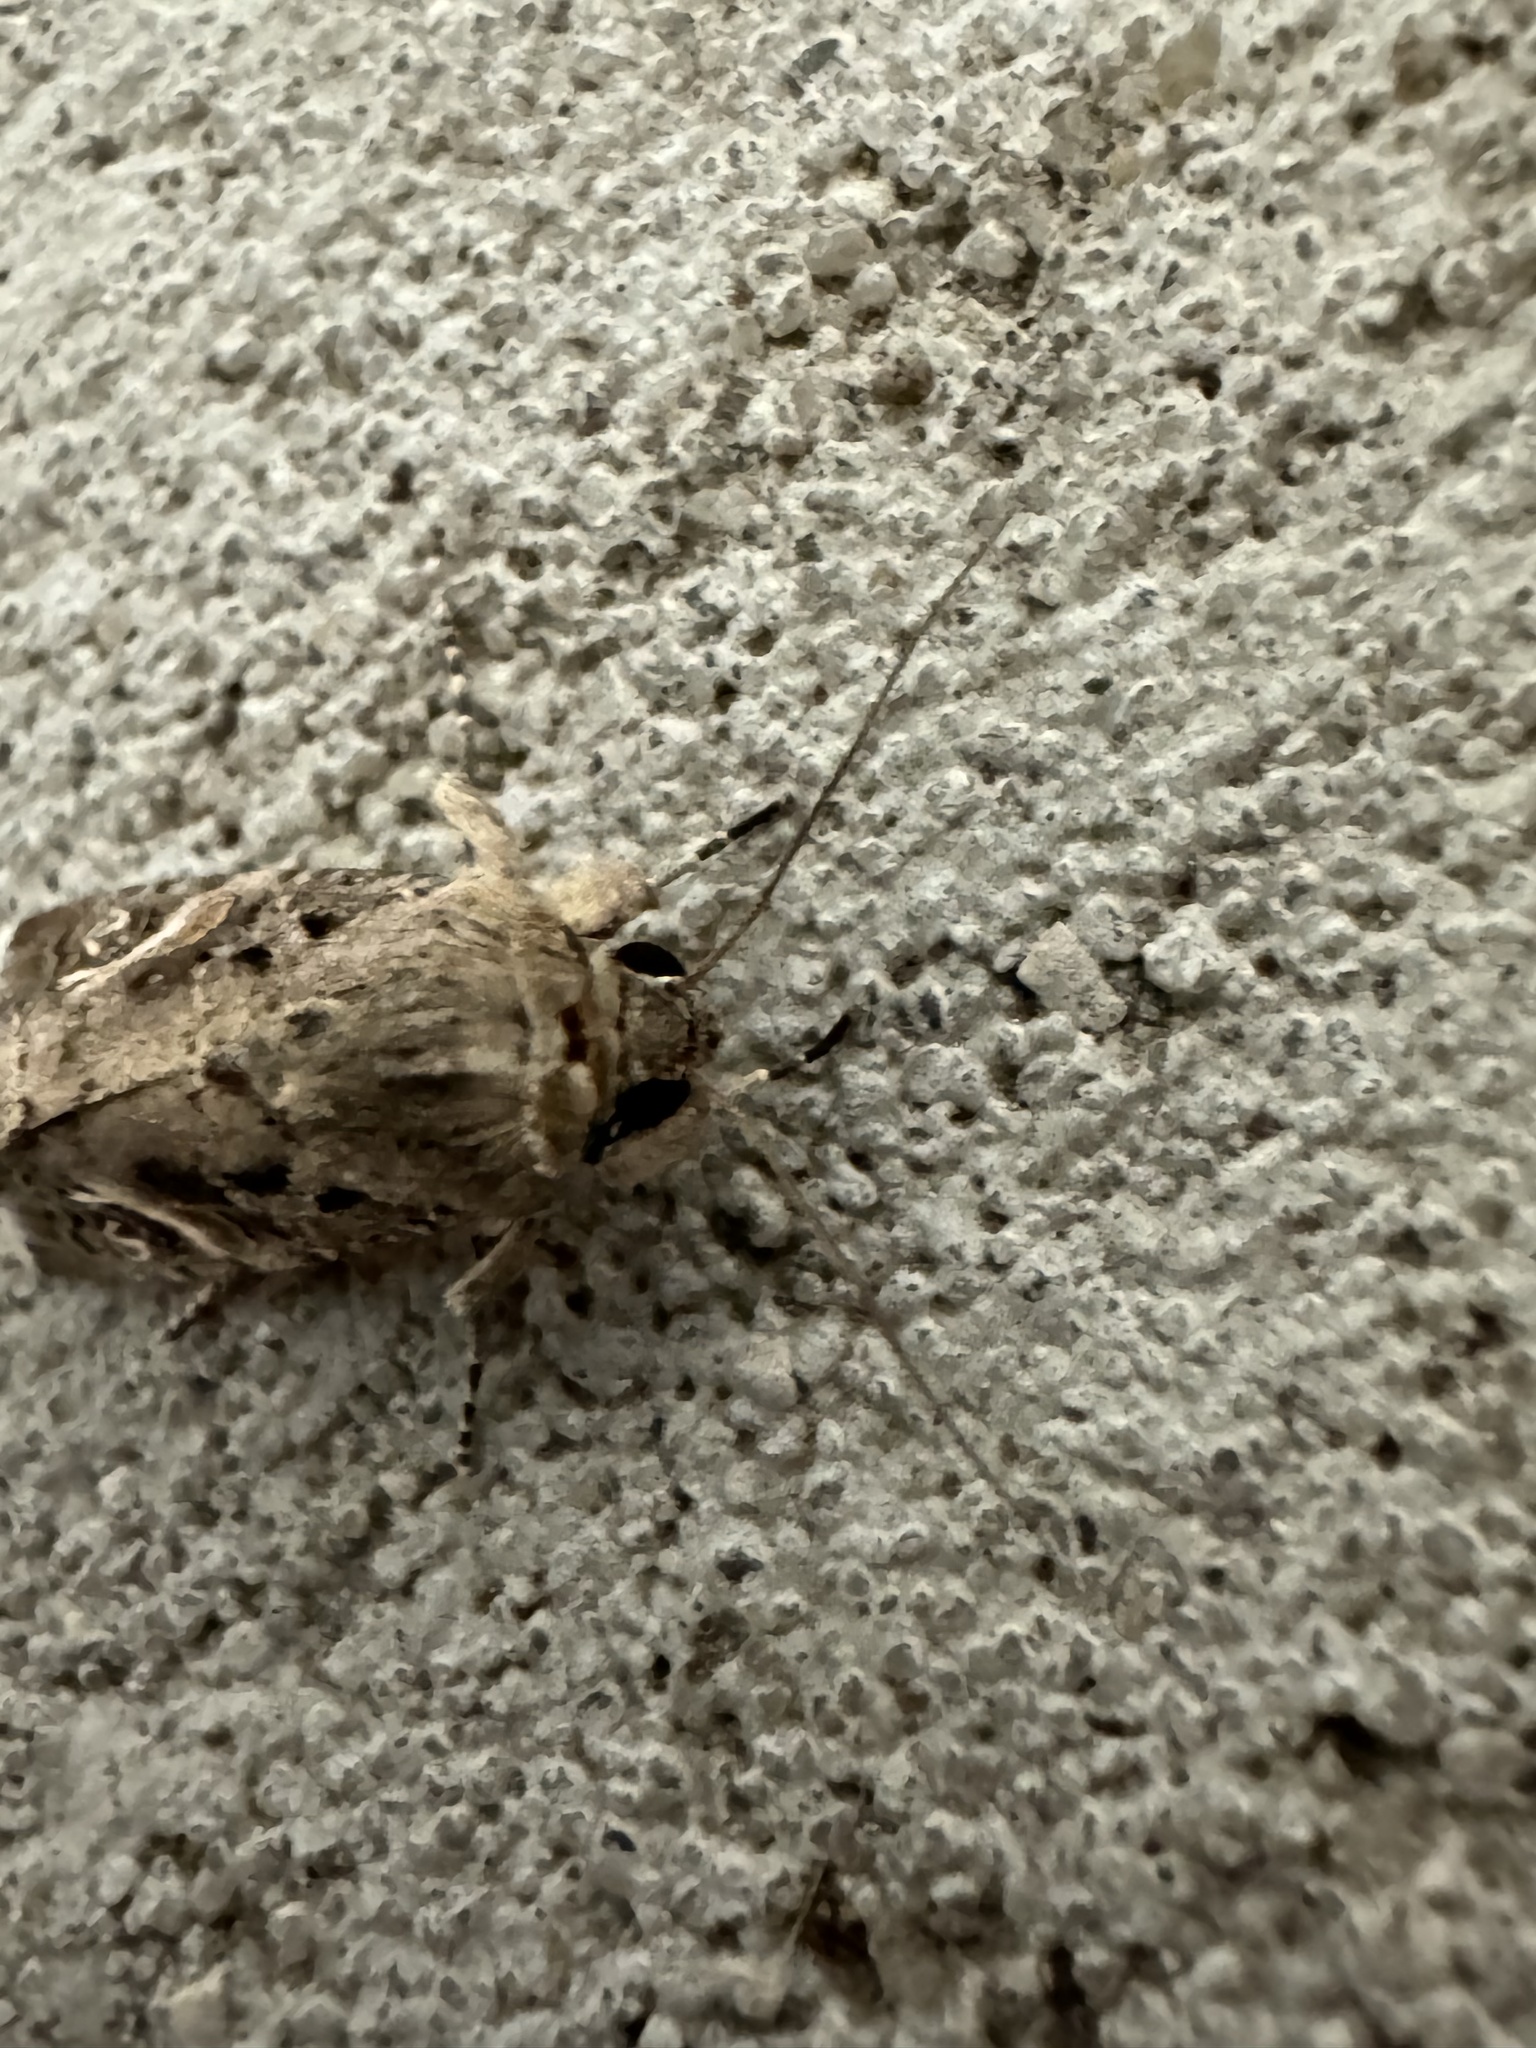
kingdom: Animalia
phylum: Arthropoda
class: Insecta
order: Lepidoptera
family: Noctuidae
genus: Spodoptera
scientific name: Spodoptera frugiperda
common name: Fall armyworm
